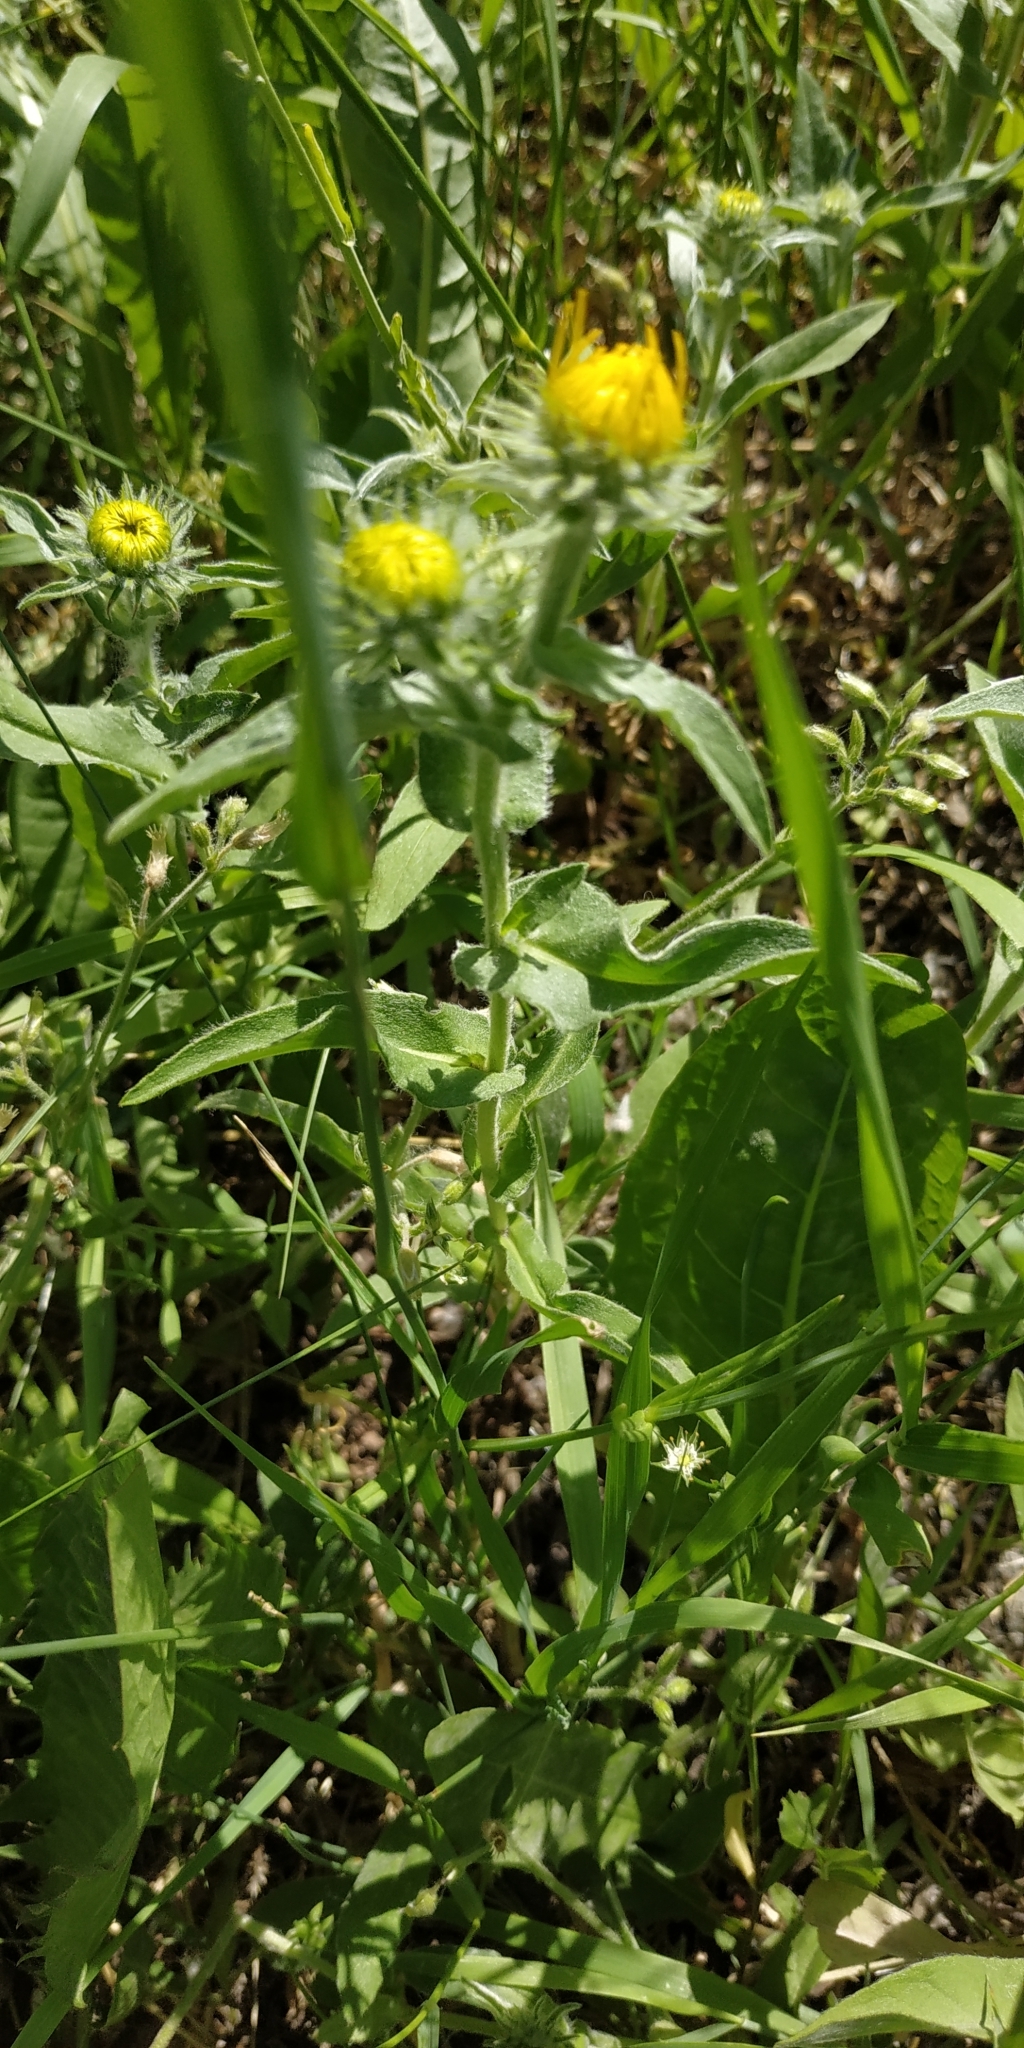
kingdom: Plantae
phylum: Tracheophyta
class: Magnoliopsida
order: Asterales
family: Asteraceae
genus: Pentanema
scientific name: Pentanema britannicum
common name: British elecampane
